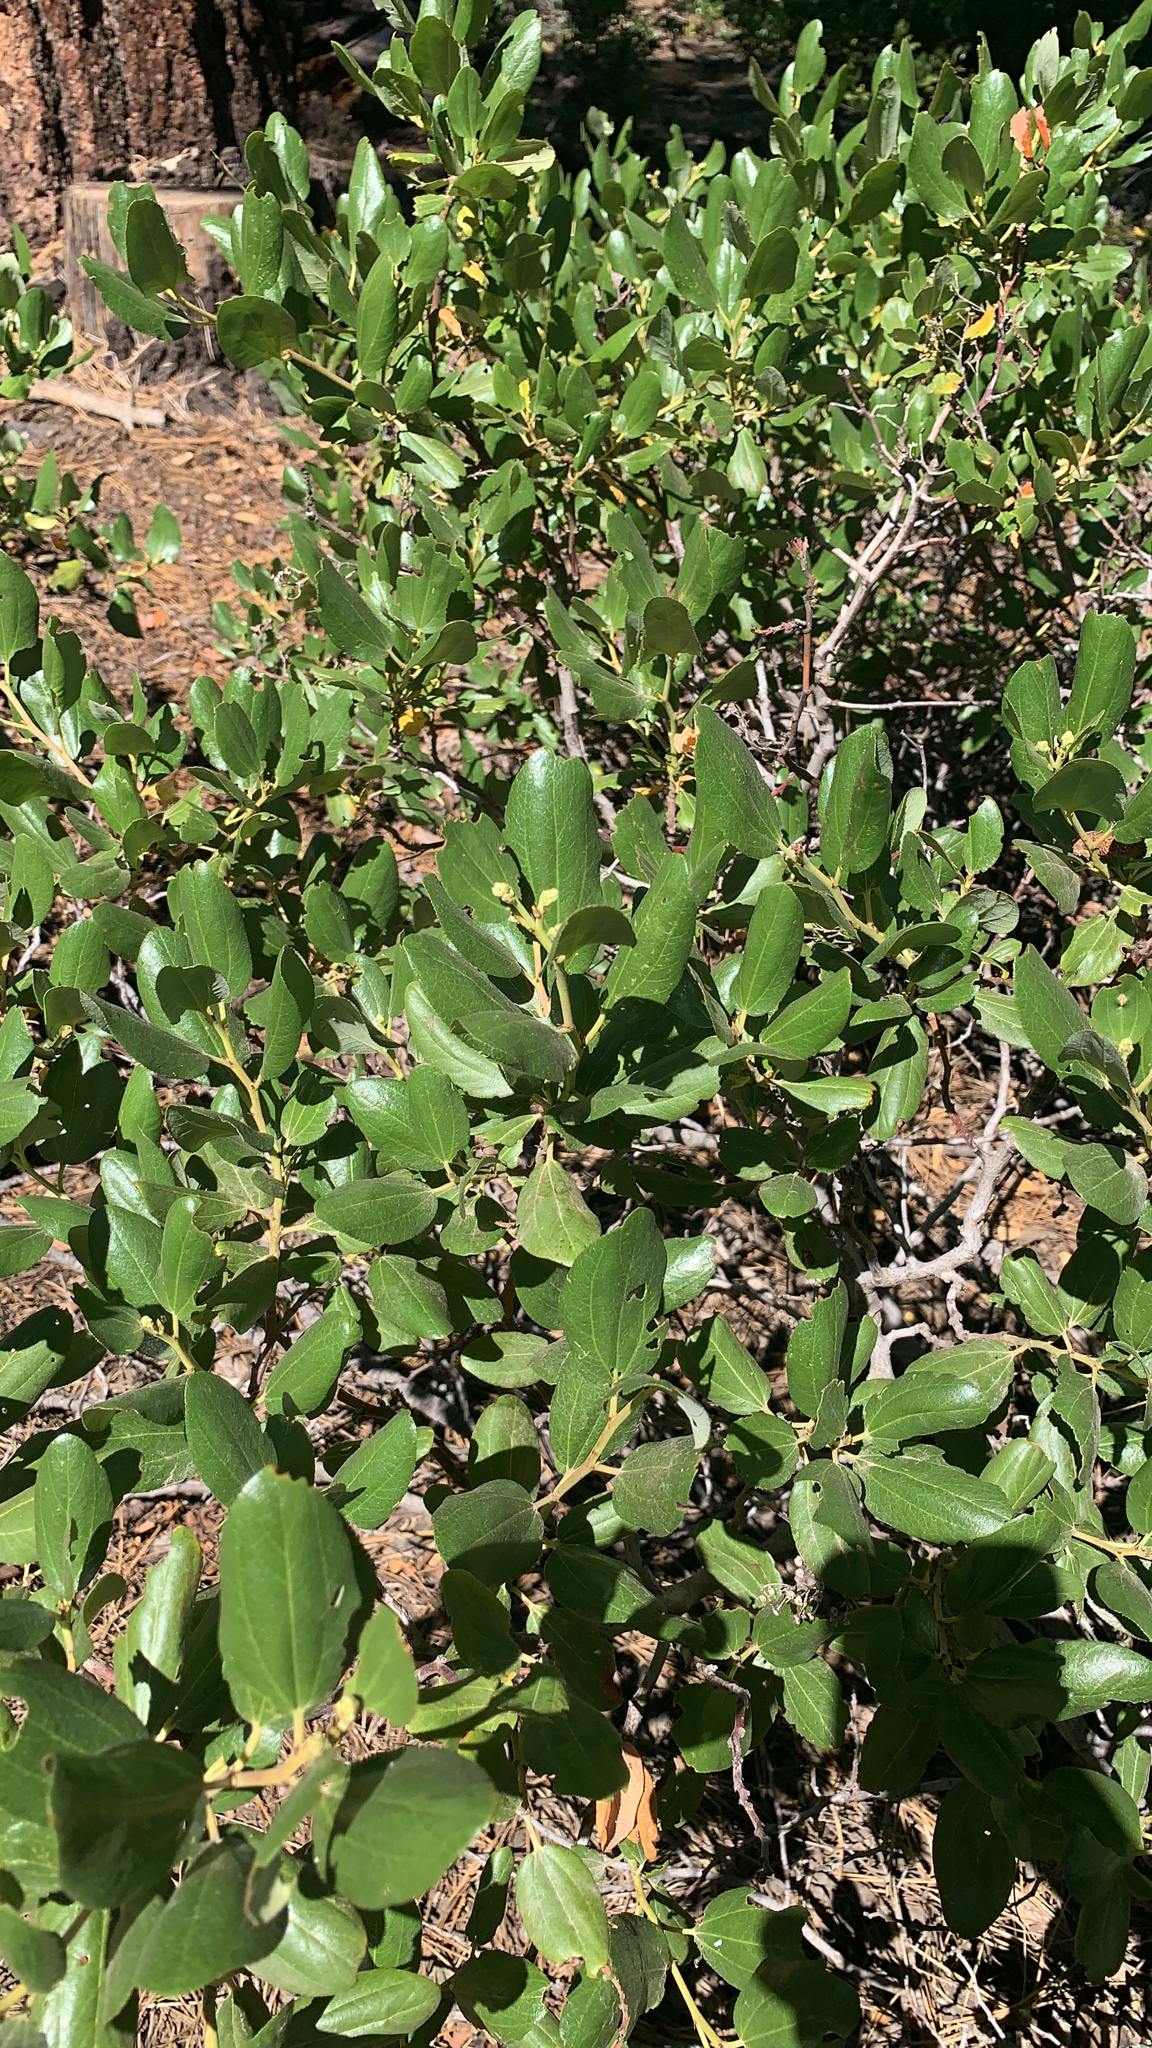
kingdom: Plantae
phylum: Tracheophyta
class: Magnoliopsida
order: Rosales
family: Rhamnaceae
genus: Ceanothus
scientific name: Ceanothus velutinus
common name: Snowbrush
